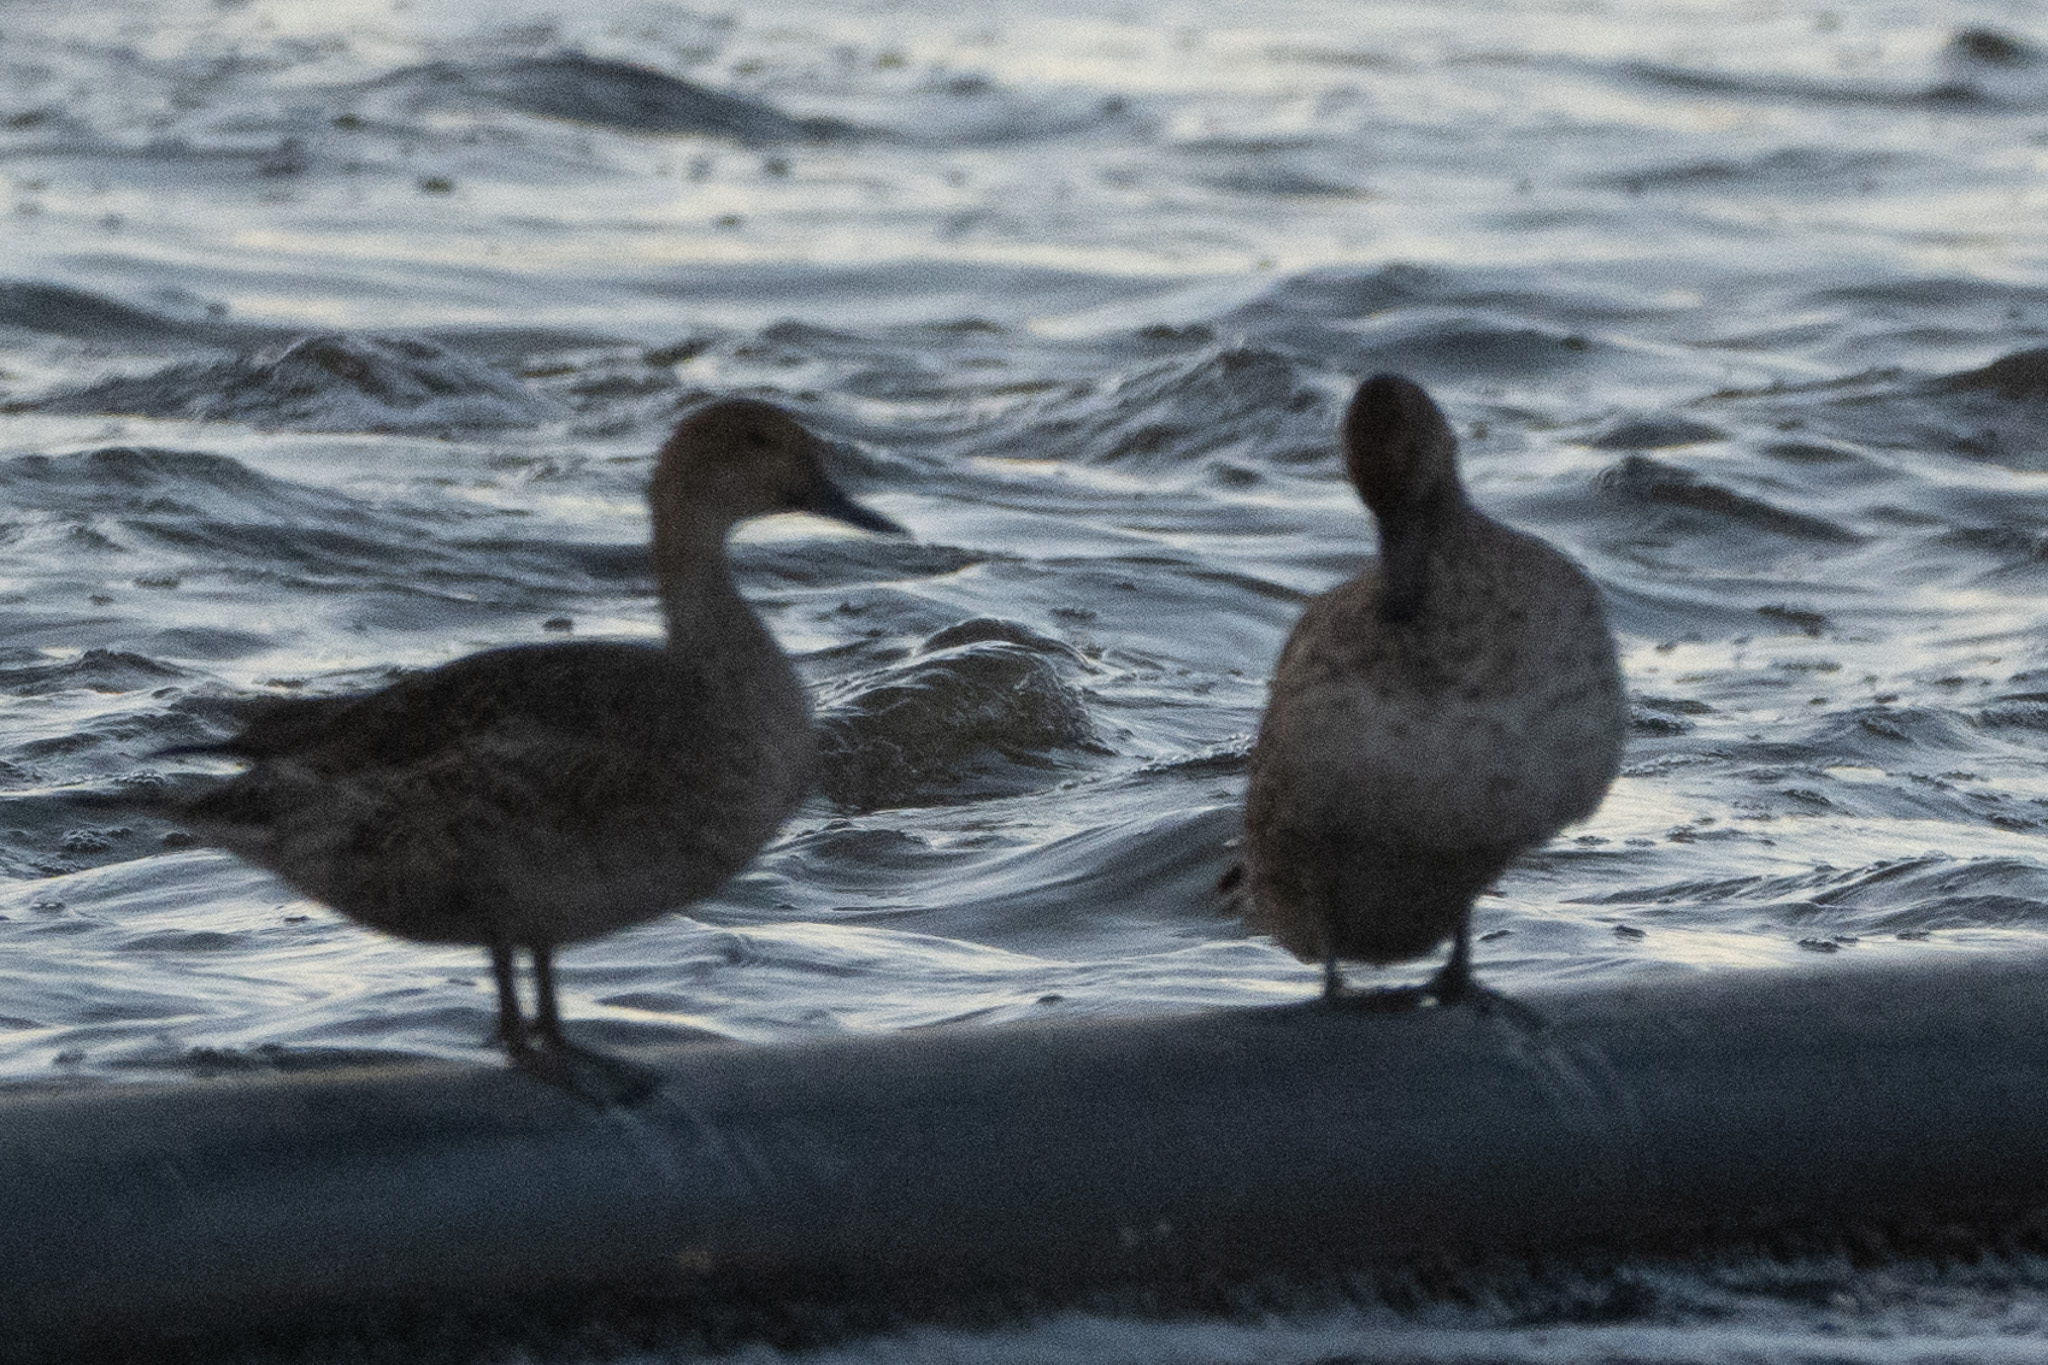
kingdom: Animalia
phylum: Chordata
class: Aves
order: Anseriformes
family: Anatidae
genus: Anas
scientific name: Anas acuta
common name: Northern pintail
